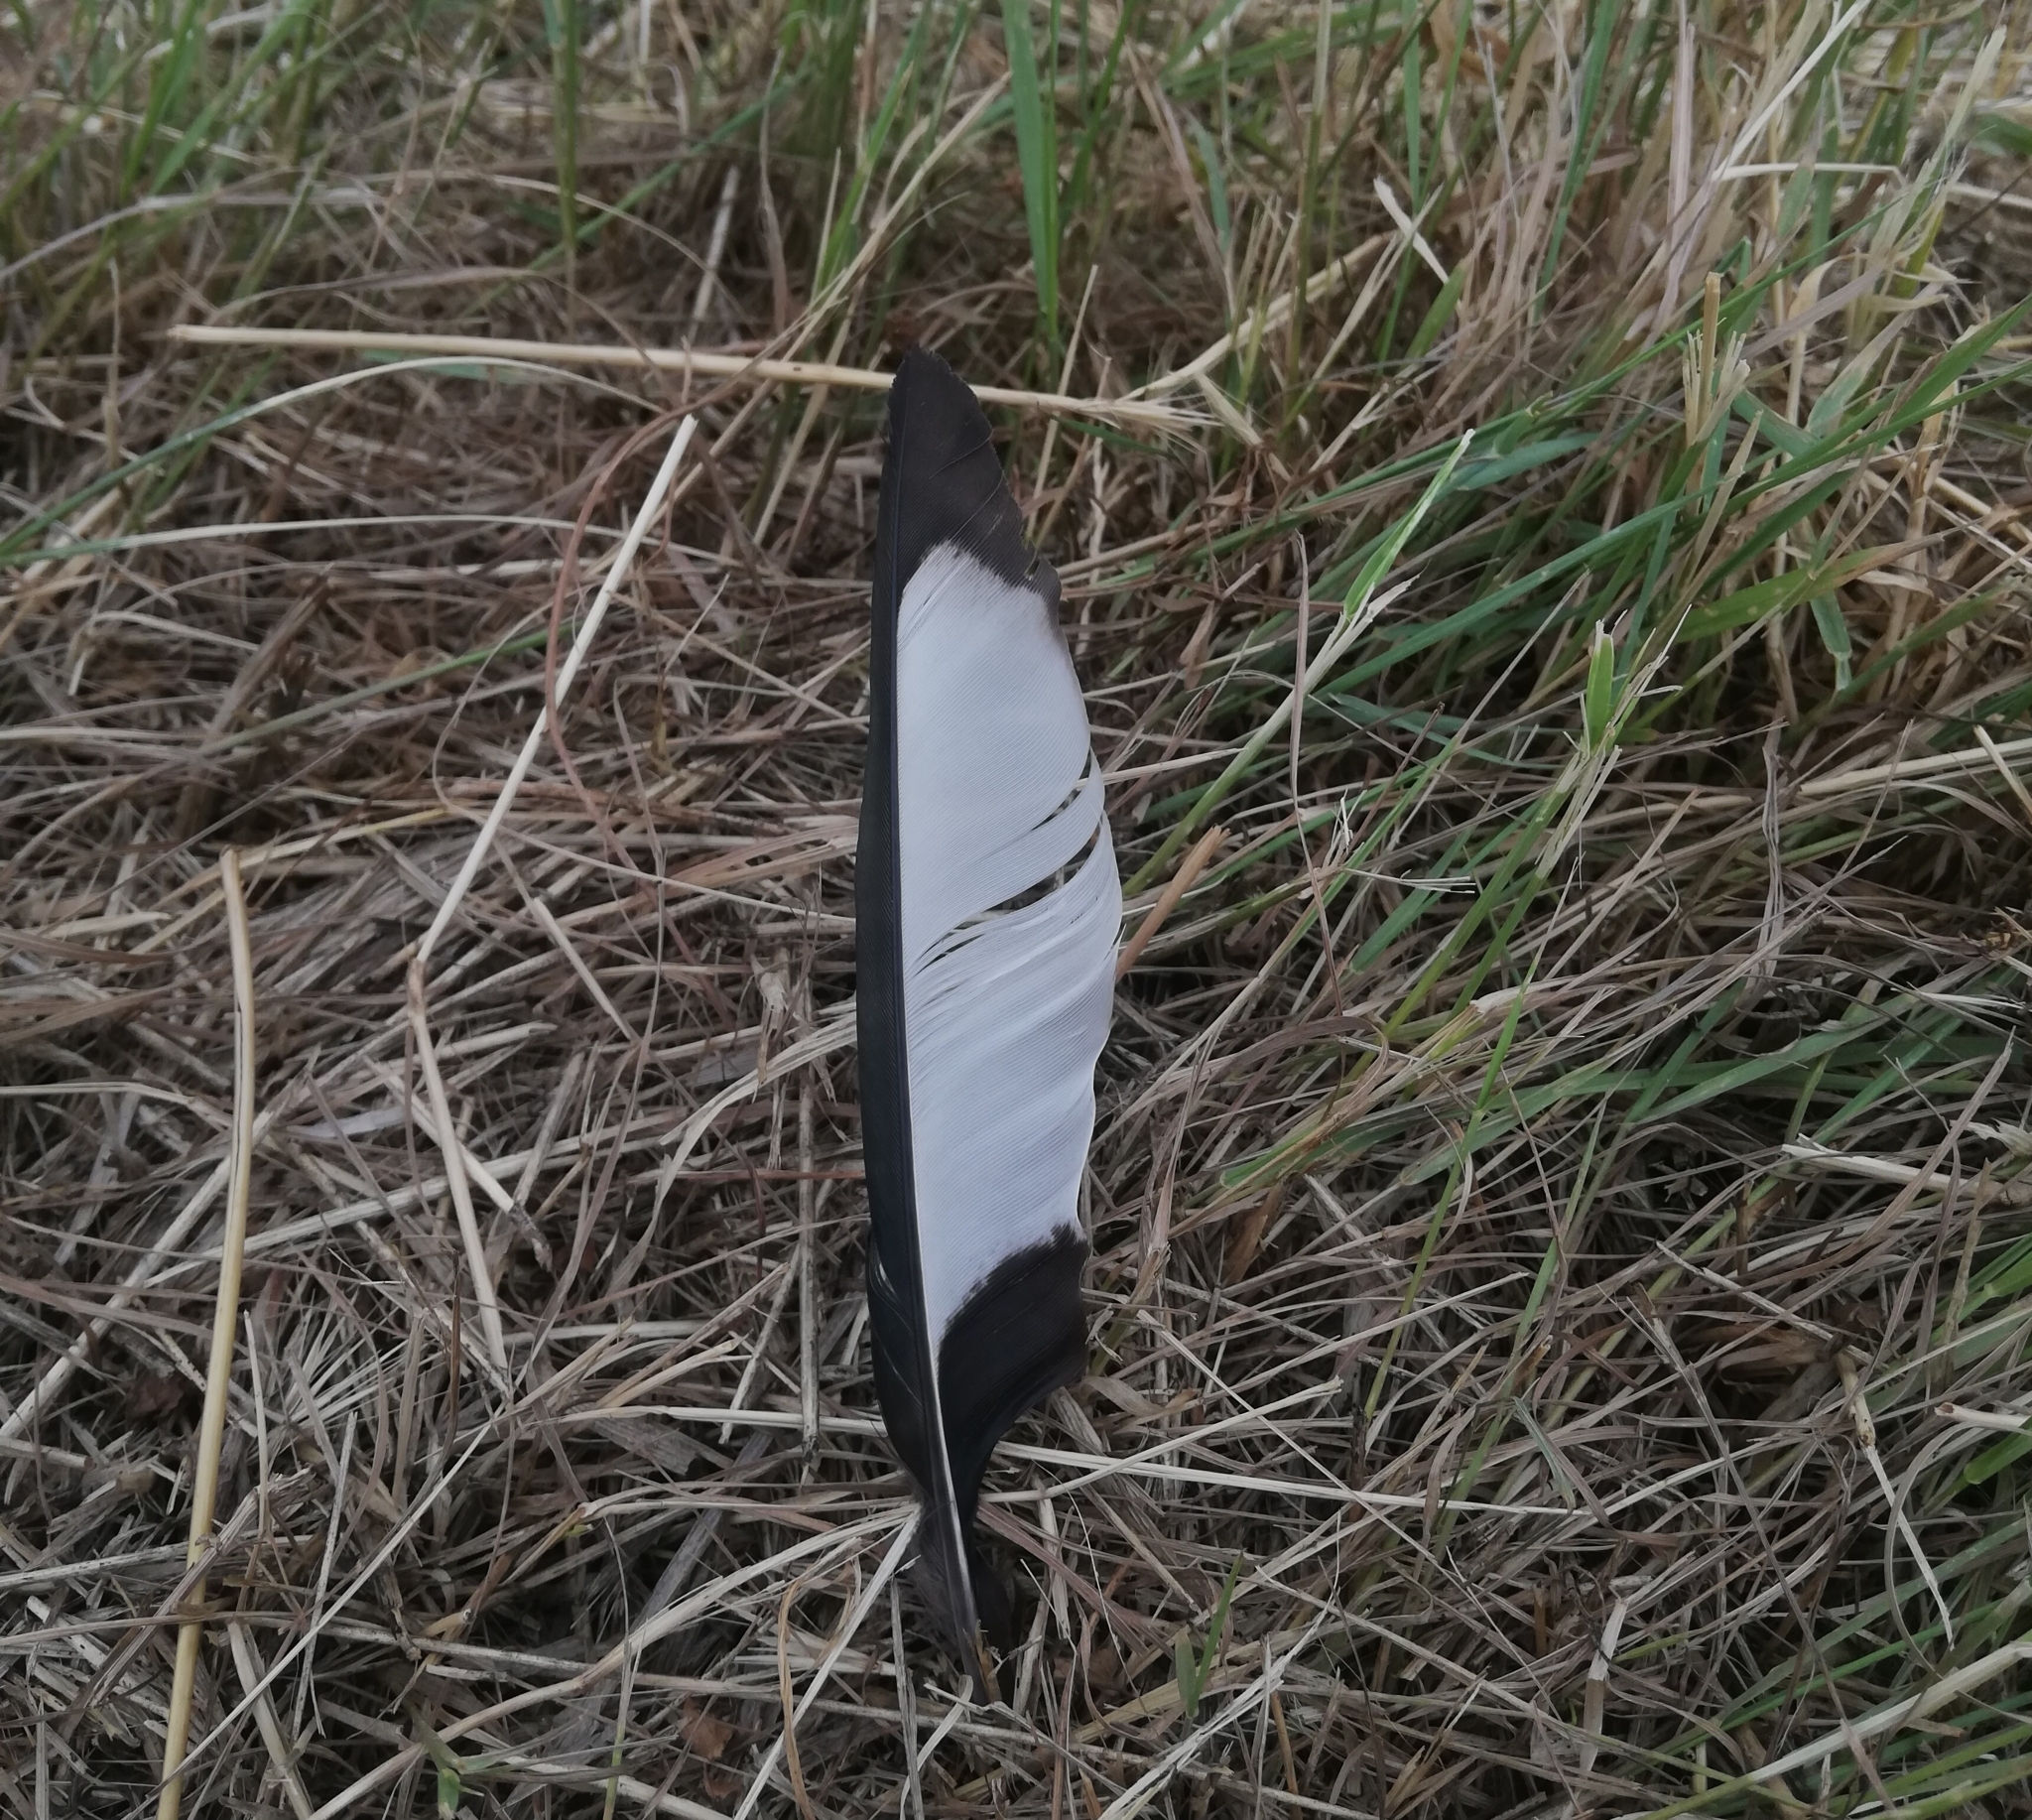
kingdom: Animalia
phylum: Chordata
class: Aves
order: Passeriformes
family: Corvidae
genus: Pica
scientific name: Pica pica
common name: Eurasian magpie
